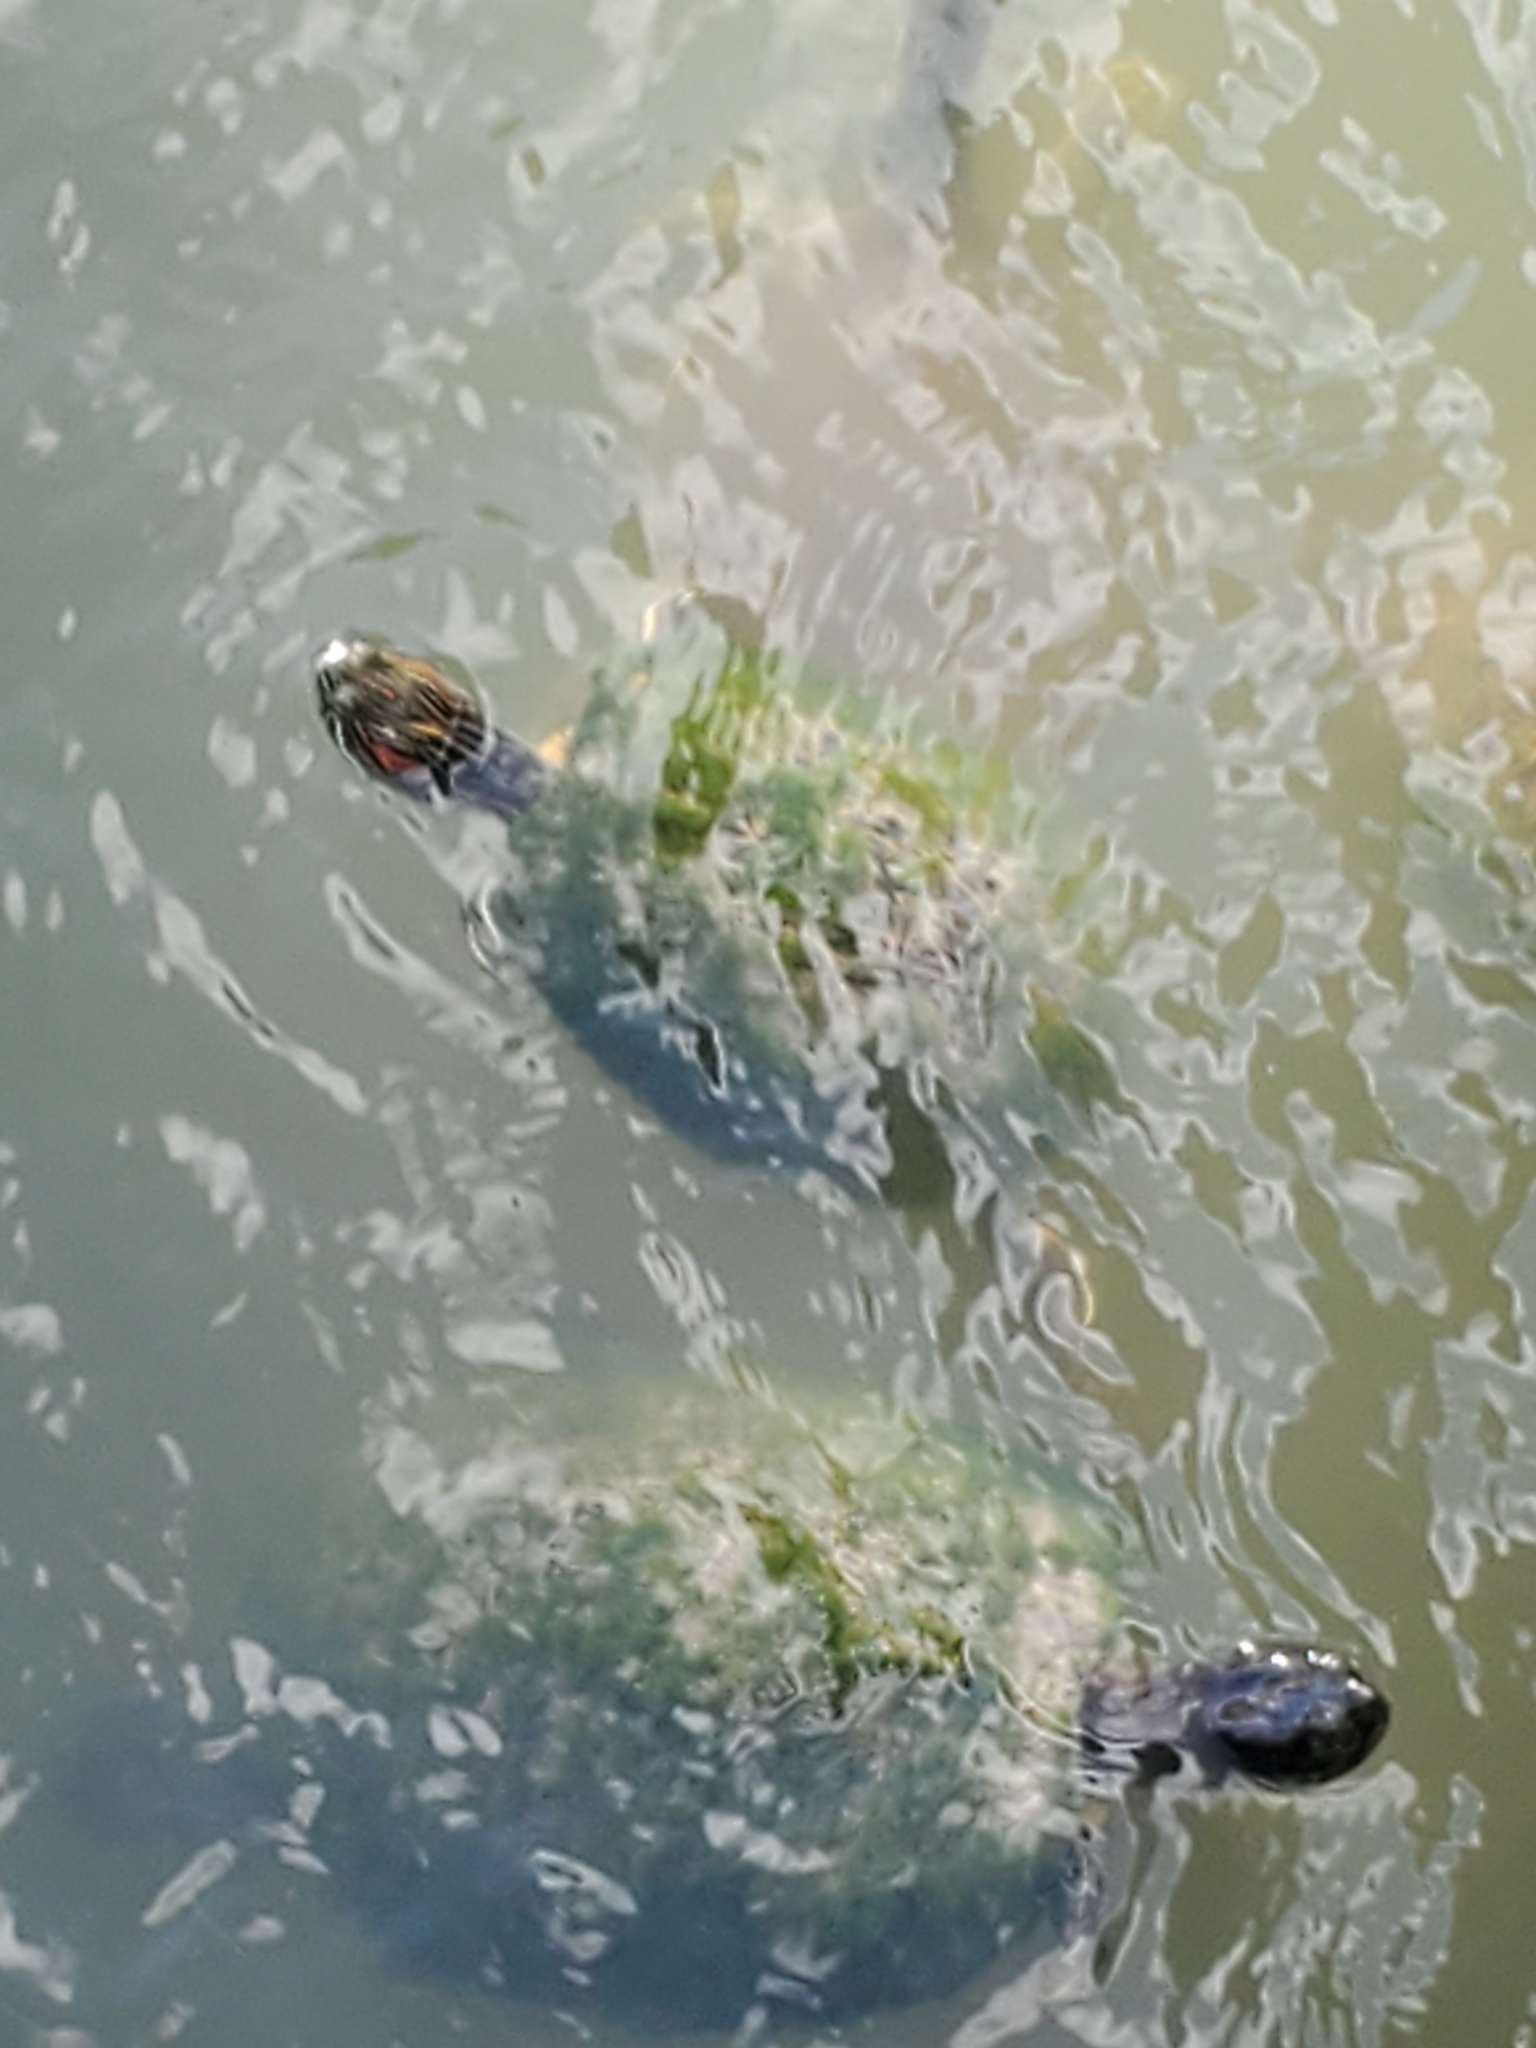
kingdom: Animalia
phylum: Chordata
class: Testudines
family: Emydidae
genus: Trachemys
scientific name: Trachemys scripta
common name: Slider
